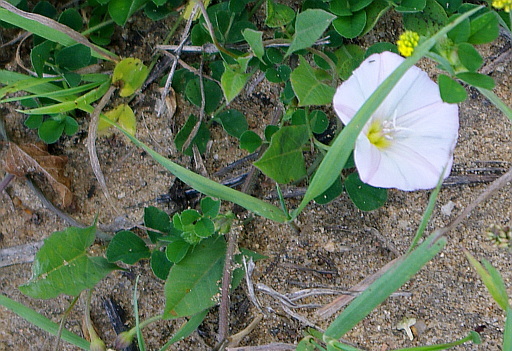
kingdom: Plantae
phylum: Tracheophyta
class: Magnoliopsida
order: Solanales
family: Convolvulaceae
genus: Convolvulus
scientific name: Convolvulus arvensis
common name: Field bindweed
